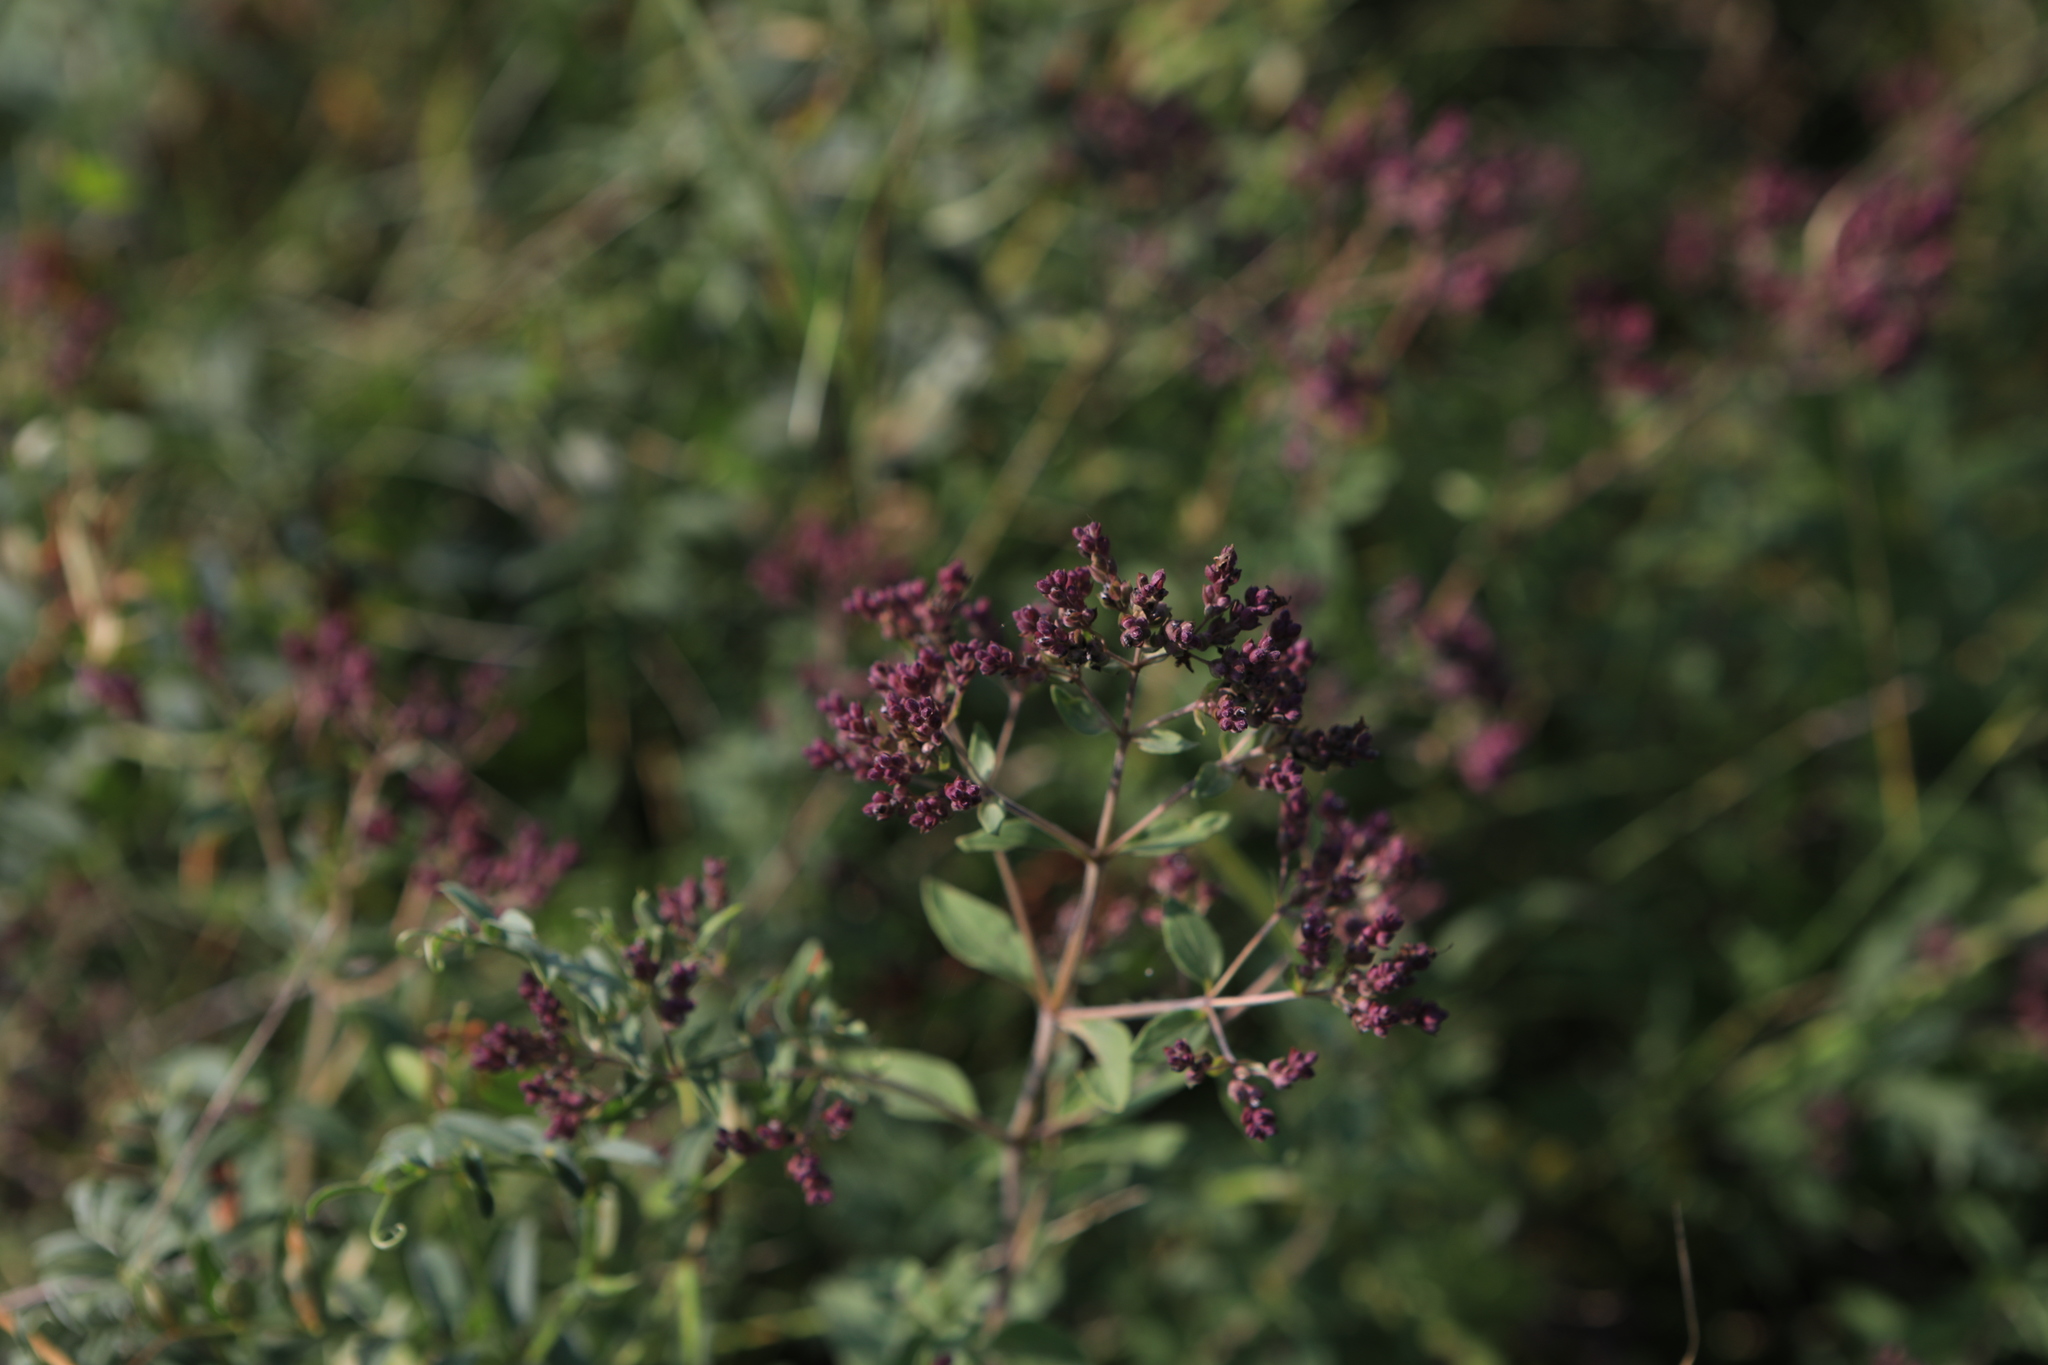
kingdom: Plantae
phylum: Tracheophyta
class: Magnoliopsida
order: Lamiales
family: Lamiaceae
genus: Origanum
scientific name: Origanum vulgare
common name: Wild marjoram
